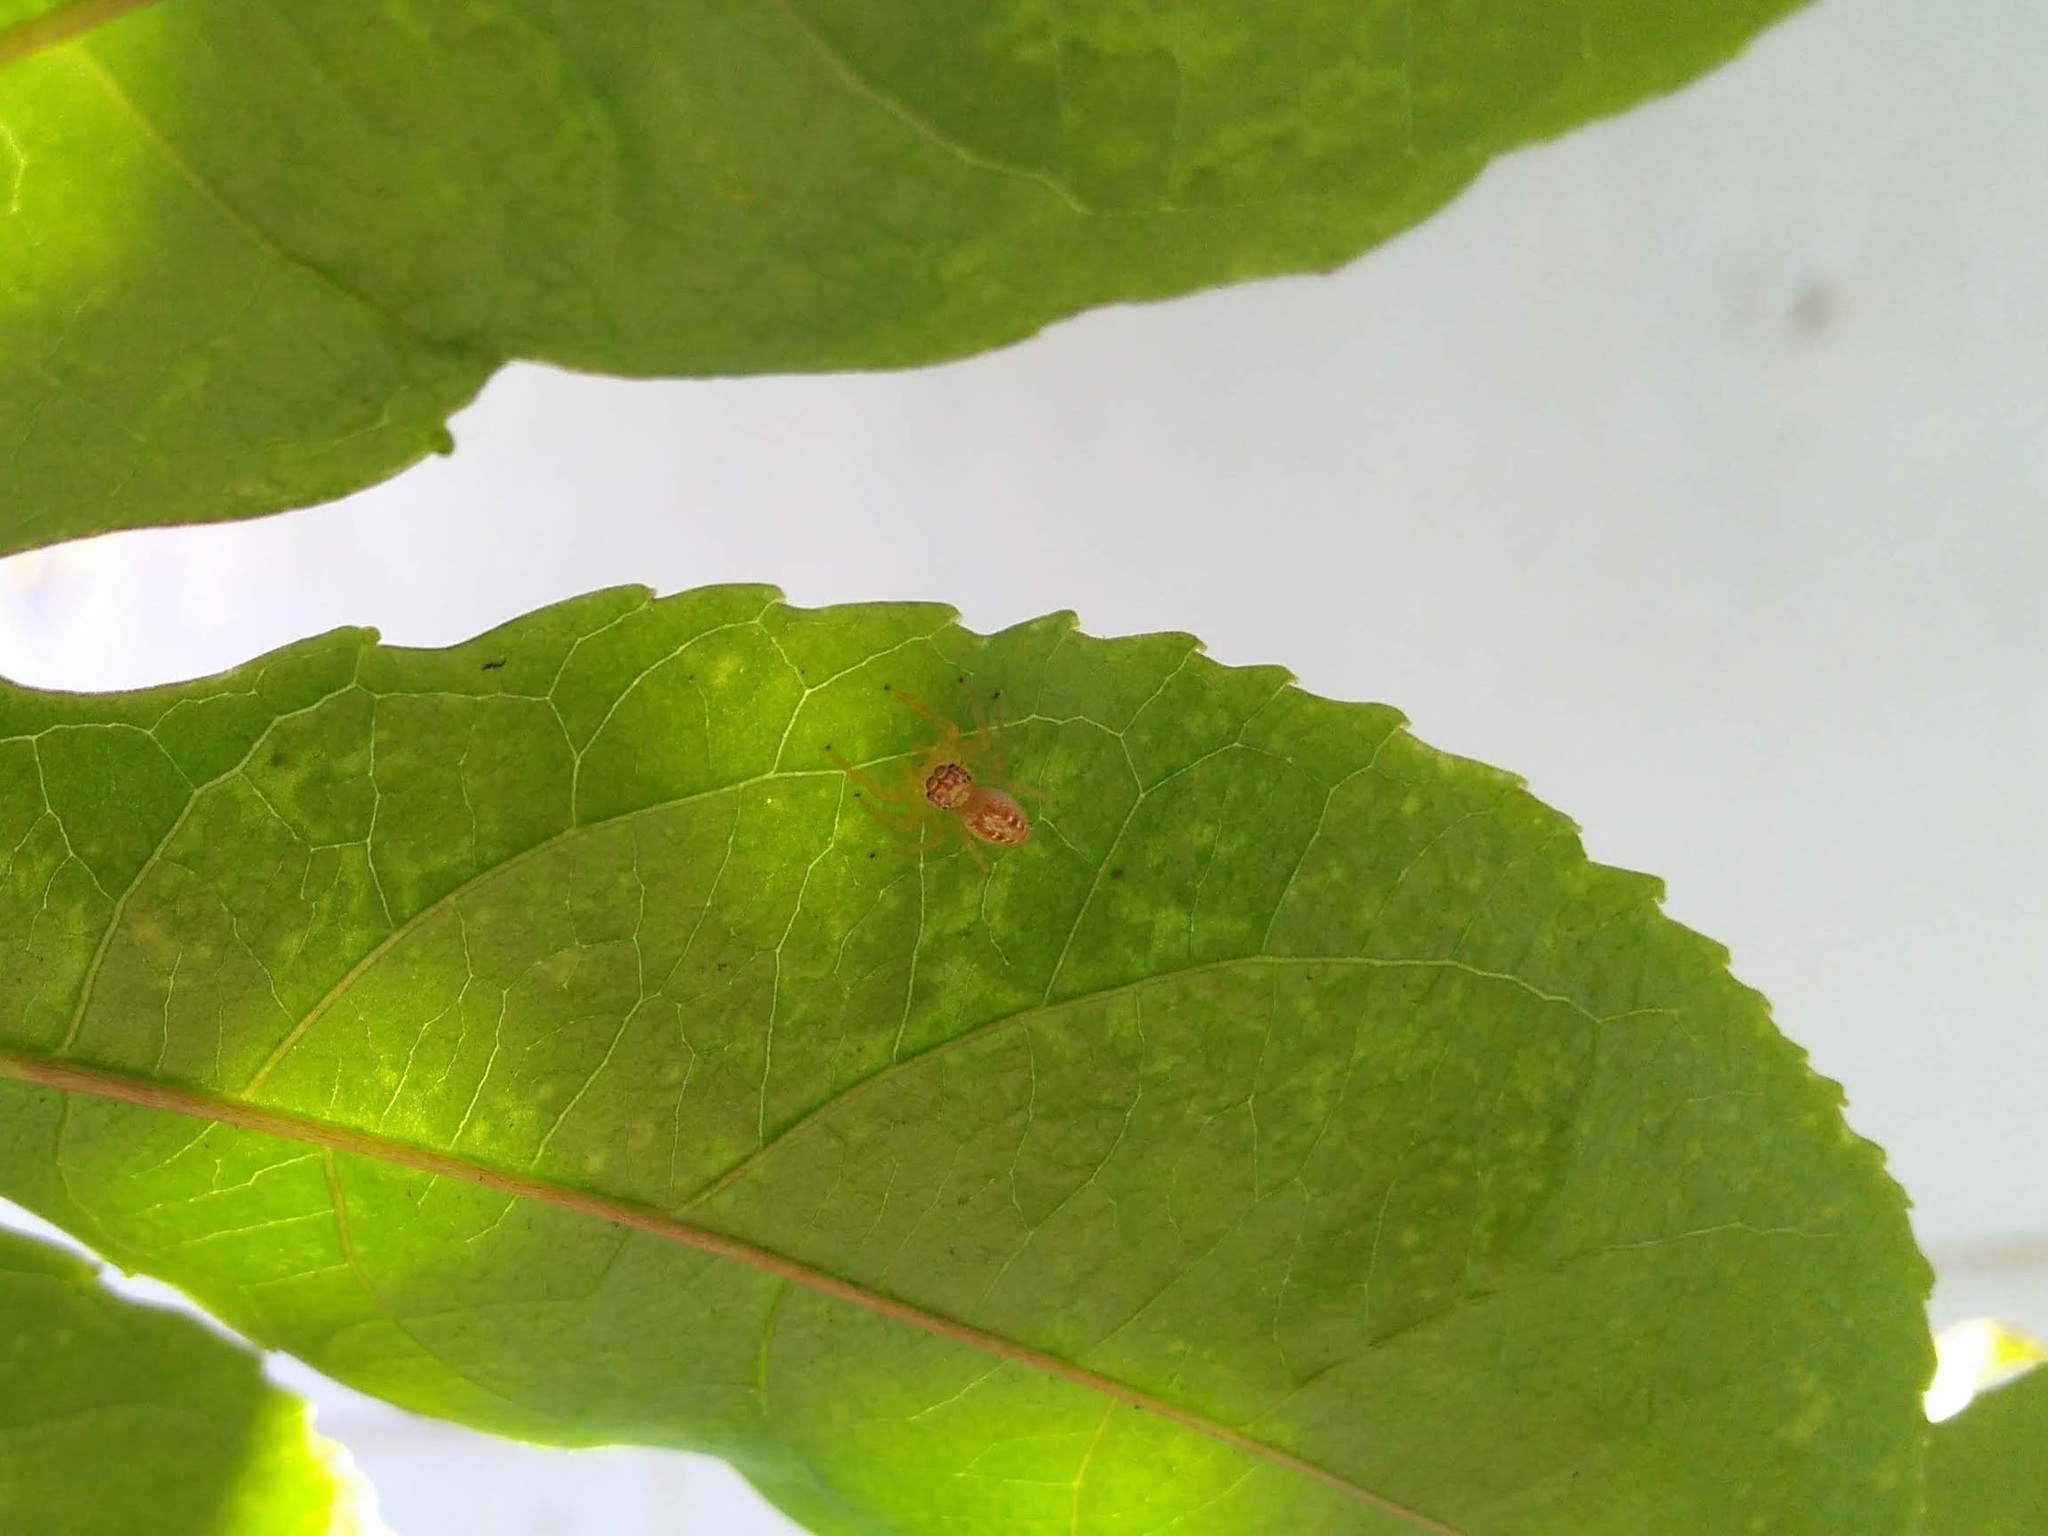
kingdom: Animalia
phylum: Arthropoda
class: Arachnida
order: Araneae
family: Salticidae
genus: Thyene
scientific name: Thyene coccineovittata
